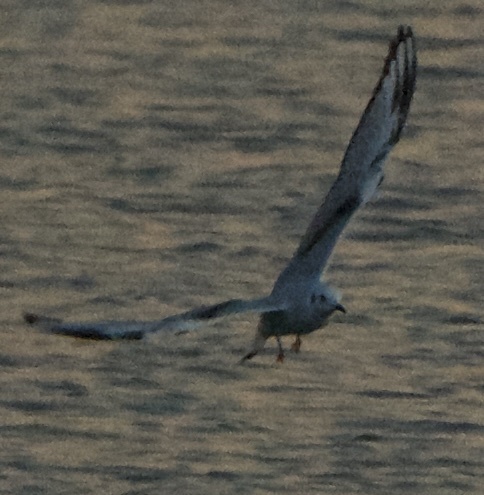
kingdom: Animalia
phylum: Chordata
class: Aves
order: Charadriiformes
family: Laridae
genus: Chroicocephalus
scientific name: Chroicocephalus philadelphia
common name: Bonaparte's gull
